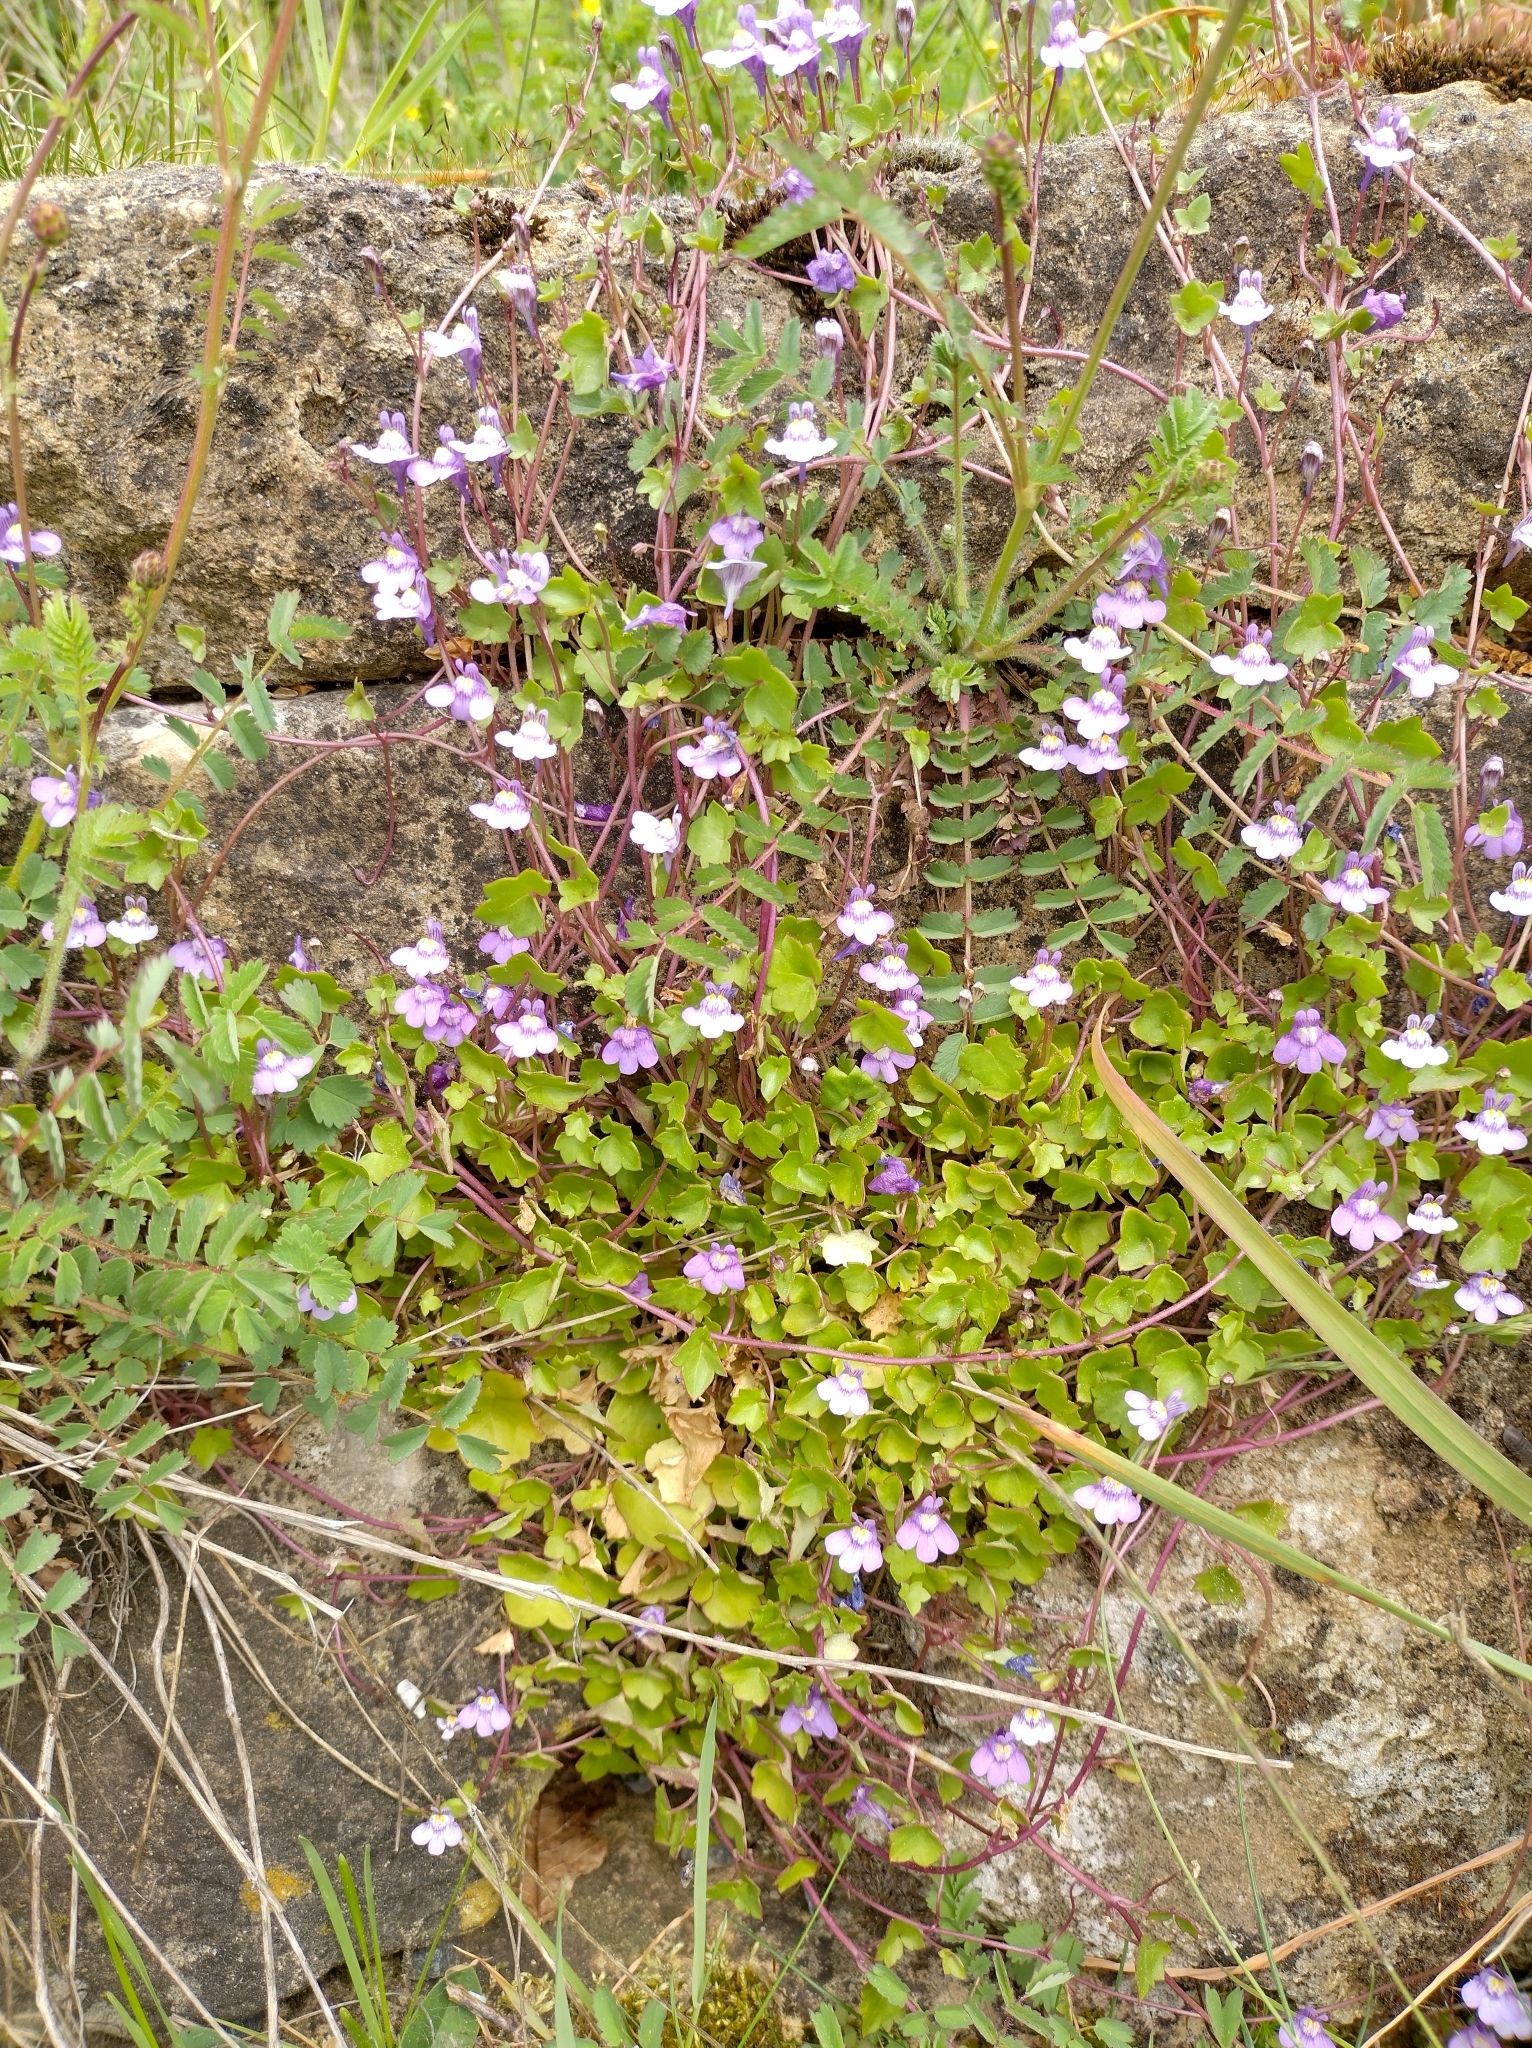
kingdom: Plantae
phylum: Tracheophyta
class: Magnoliopsida
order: Lamiales
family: Plantaginaceae
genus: Cymbalaria
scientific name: Cymbalaria muralis
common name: Ivy-leaved toadflax
